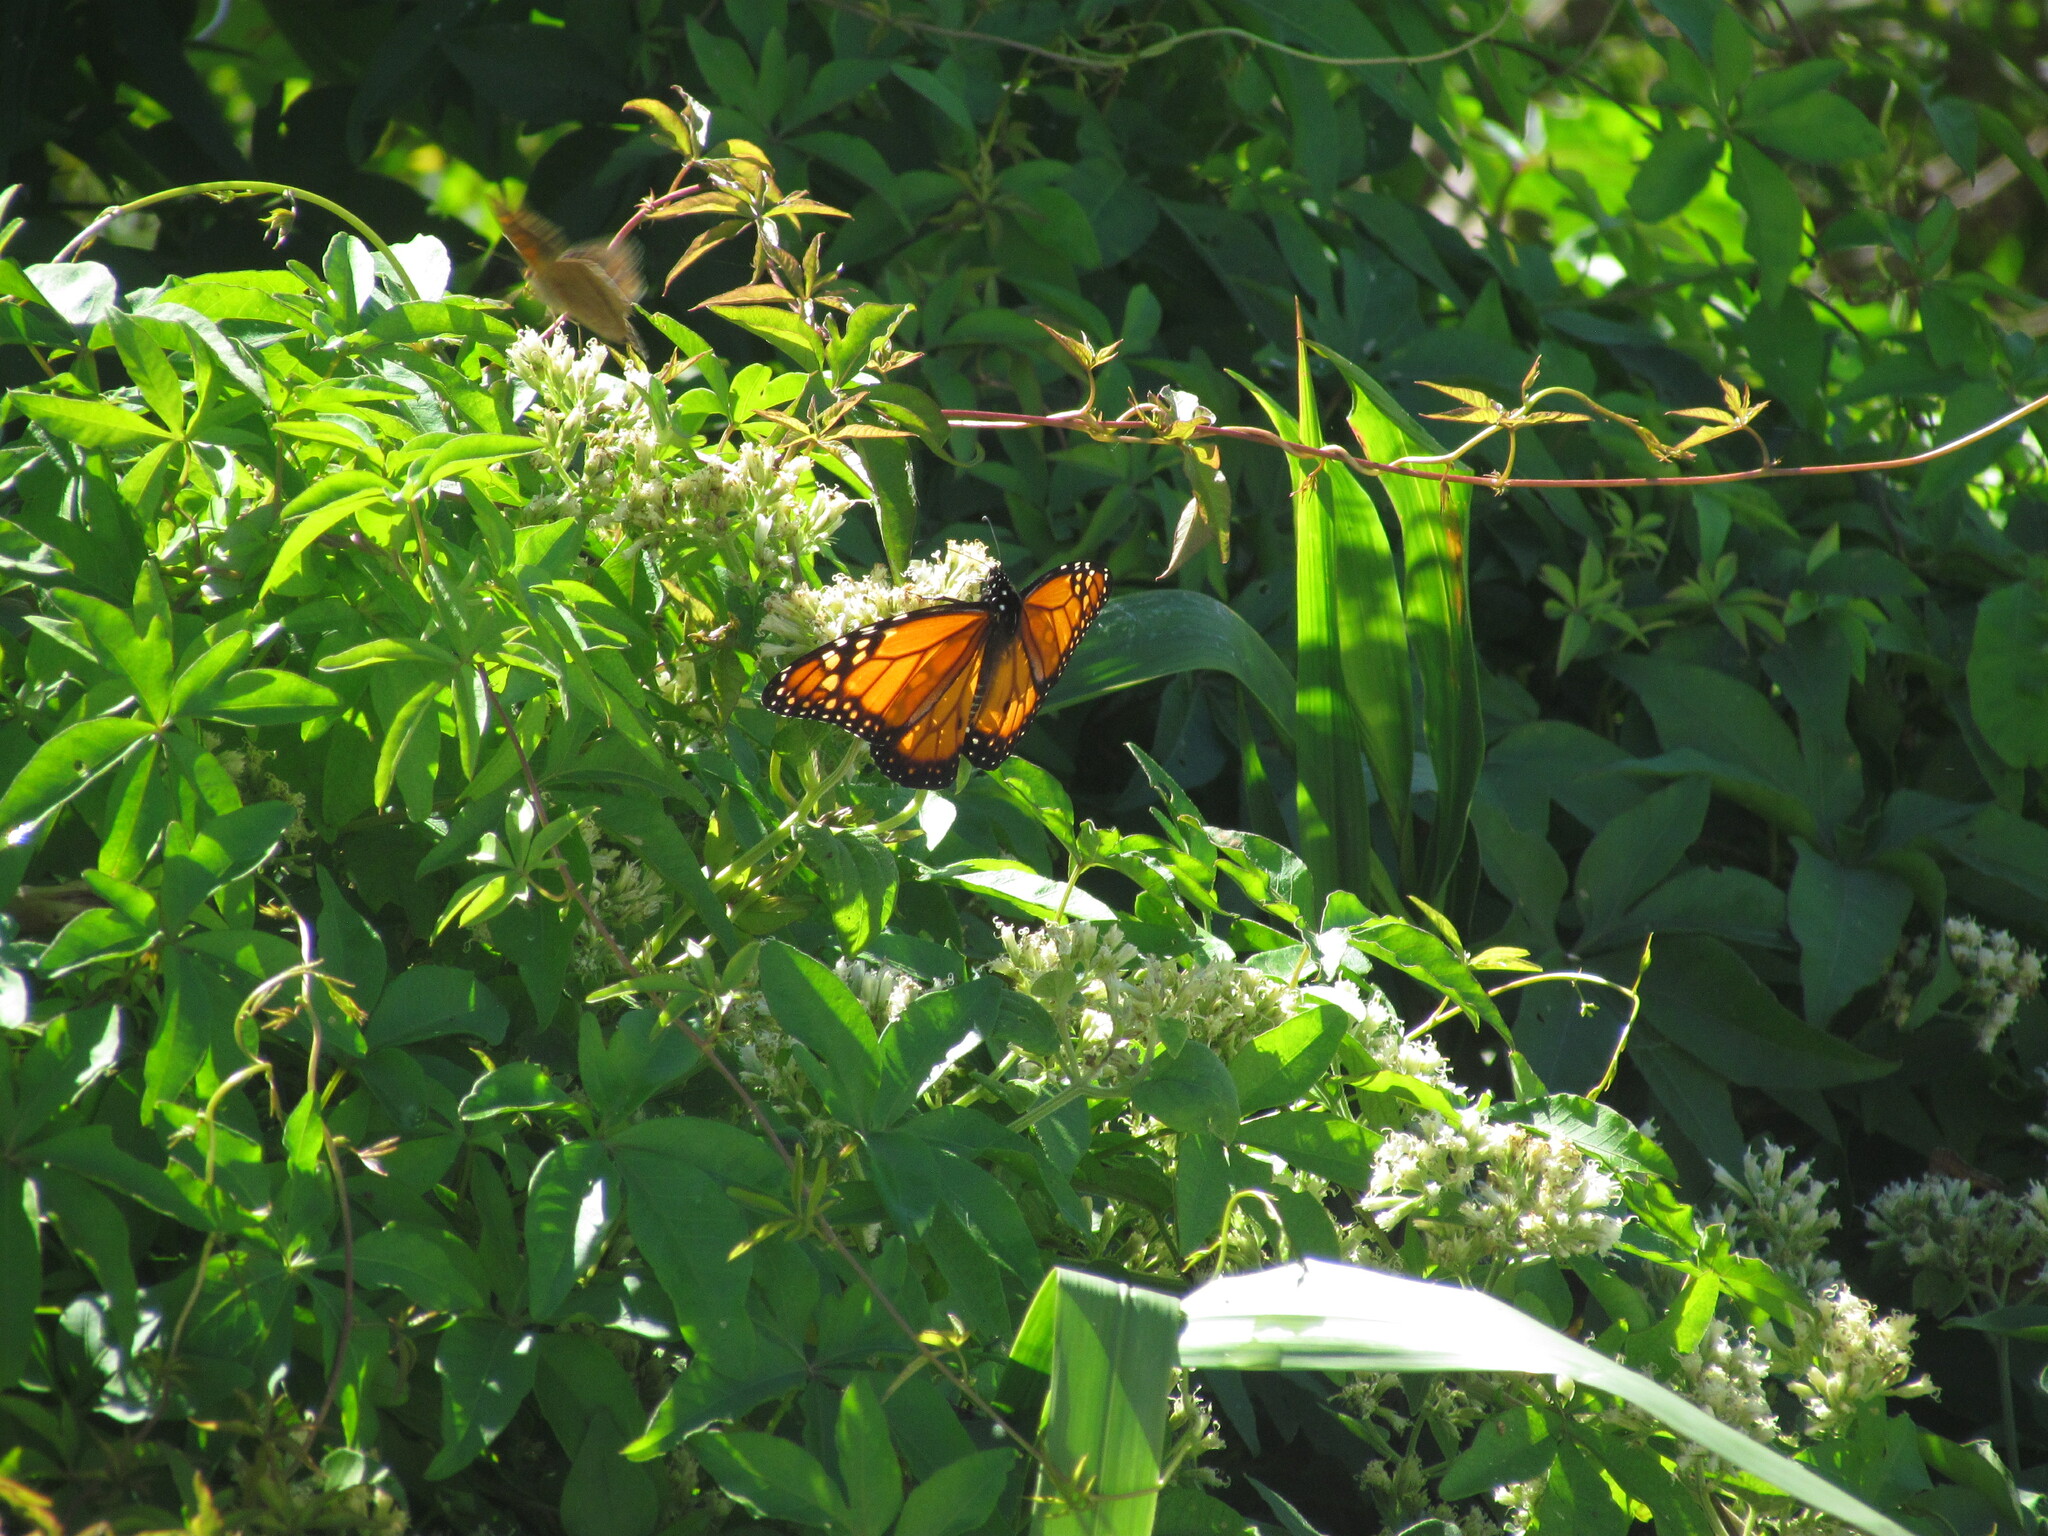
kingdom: Animalia
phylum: Arthropoda
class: Insecta
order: Lepidoptera
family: Nymphalidae
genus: Danaus
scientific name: Danaus erippus
